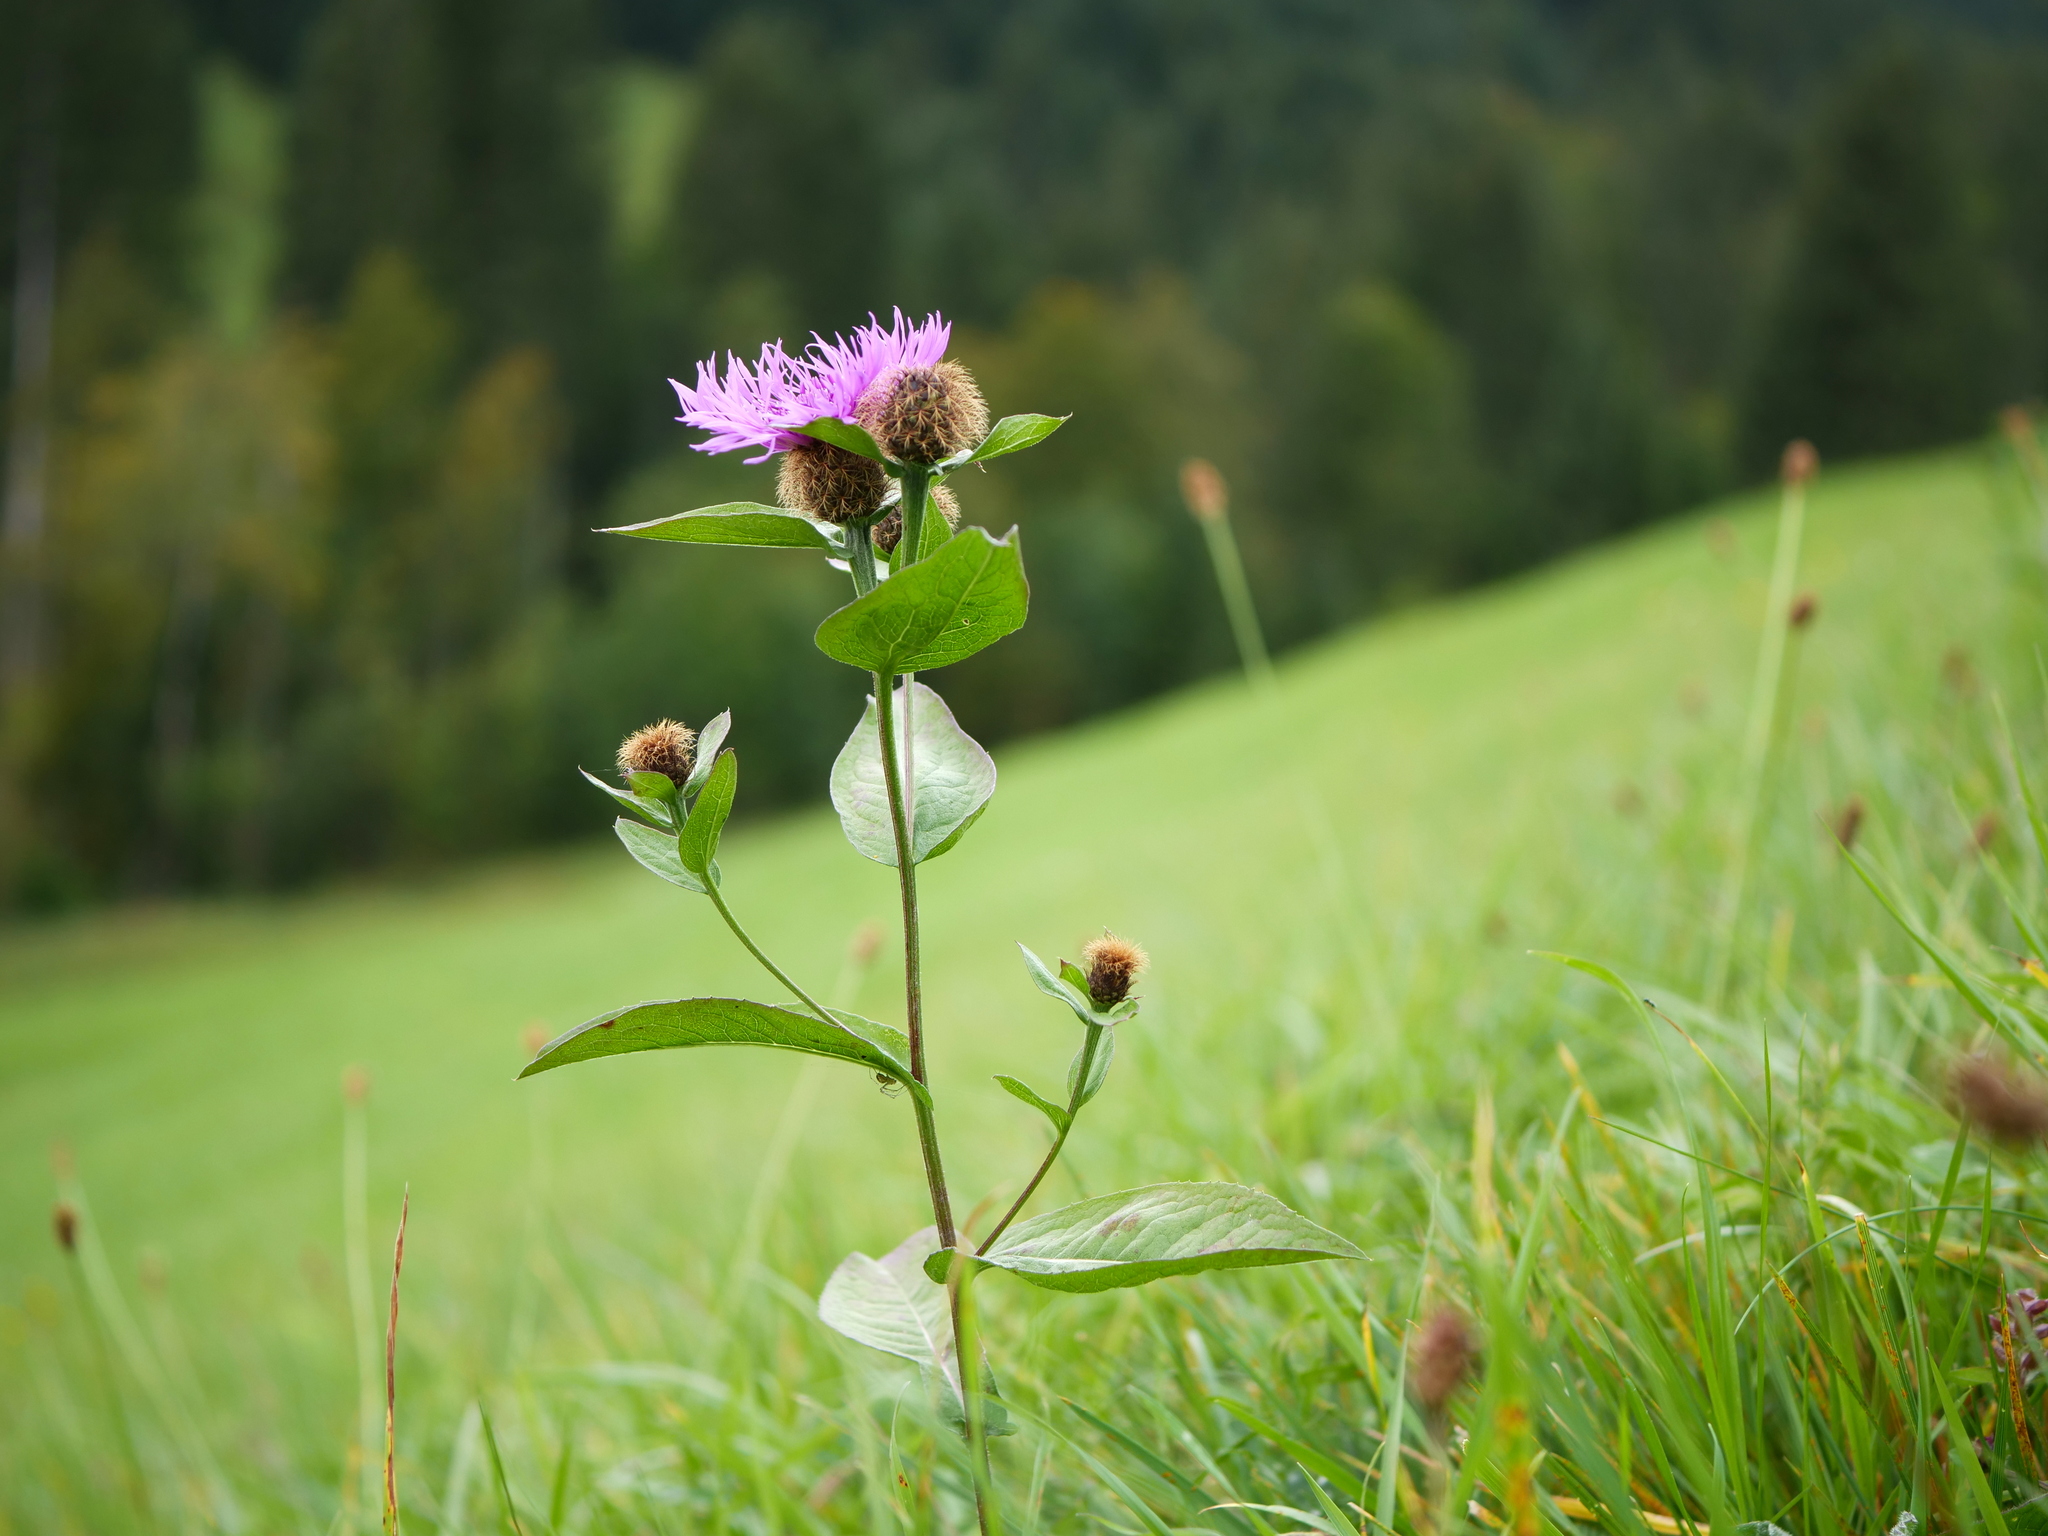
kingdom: Plantae
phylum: Tracheophyta
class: Magnoliopsida
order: Asterales
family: Asteraceae
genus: Centaurea
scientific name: Centaurea pseudophrygia
